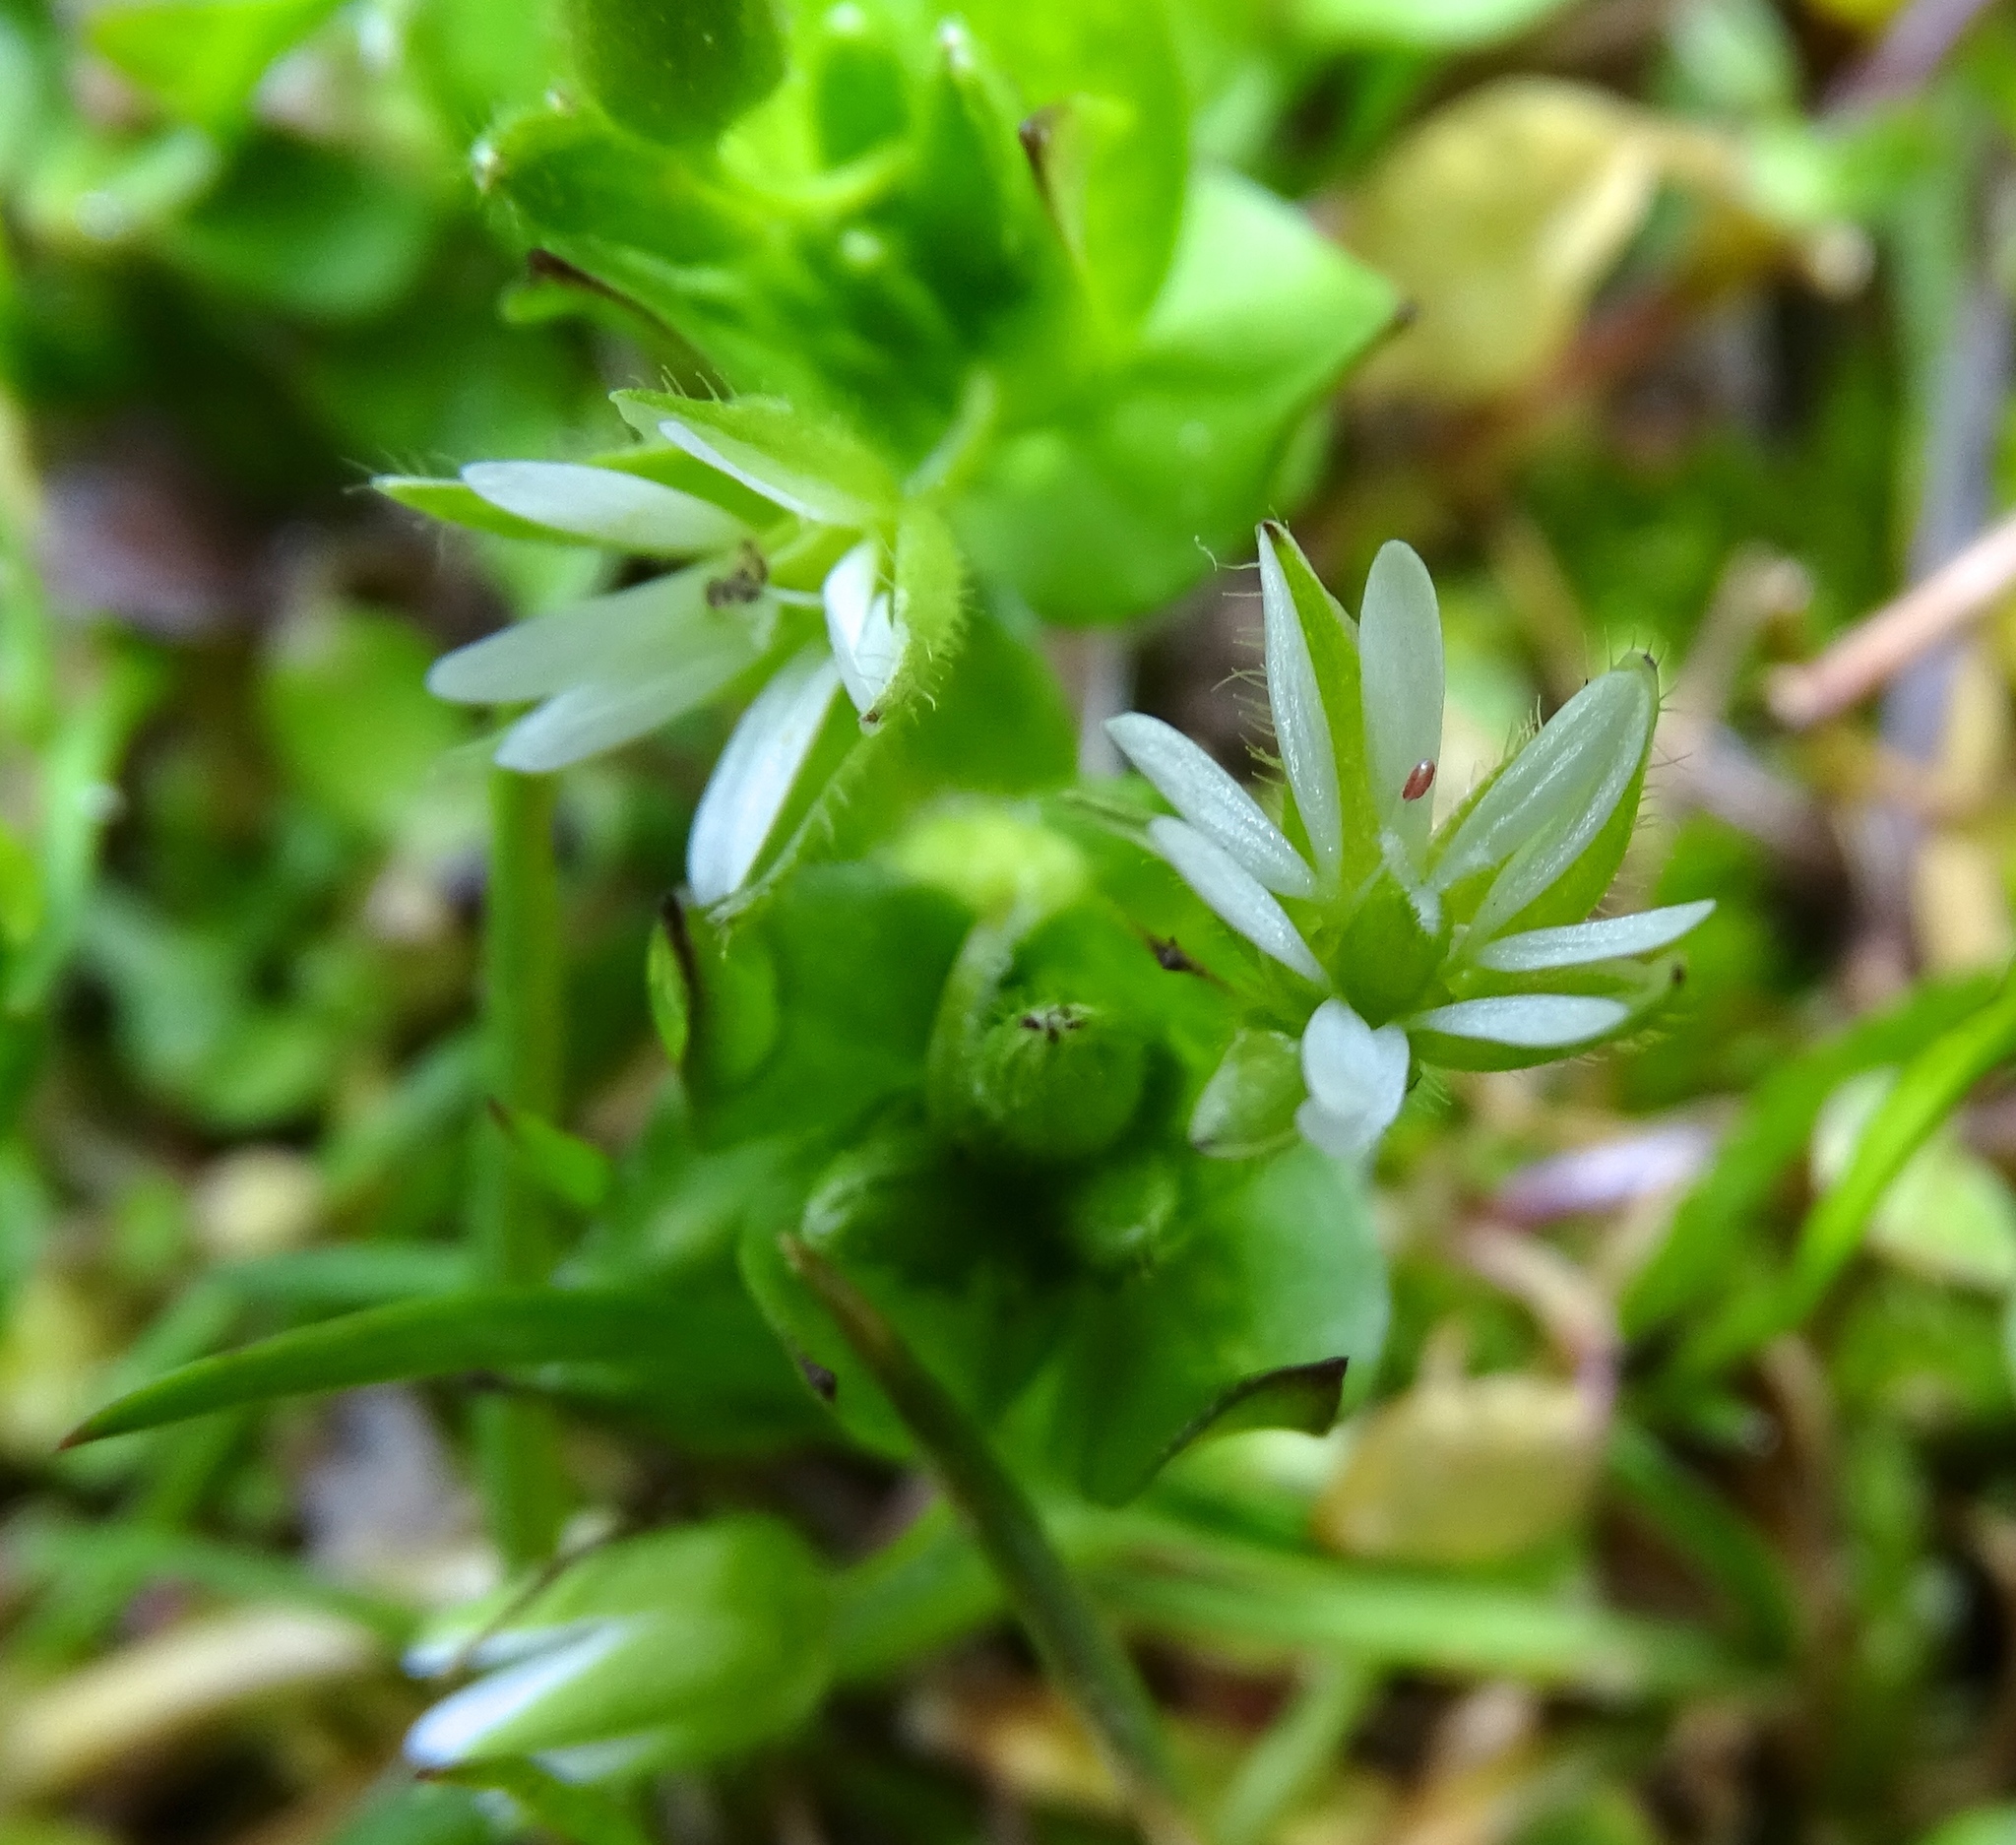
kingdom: Plantae
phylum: Tracheophyta
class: Magnoliopsida
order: Caryophyllales
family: Caryophyllaceae
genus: Stellaria
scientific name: Stellaria media
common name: Common chickweed
